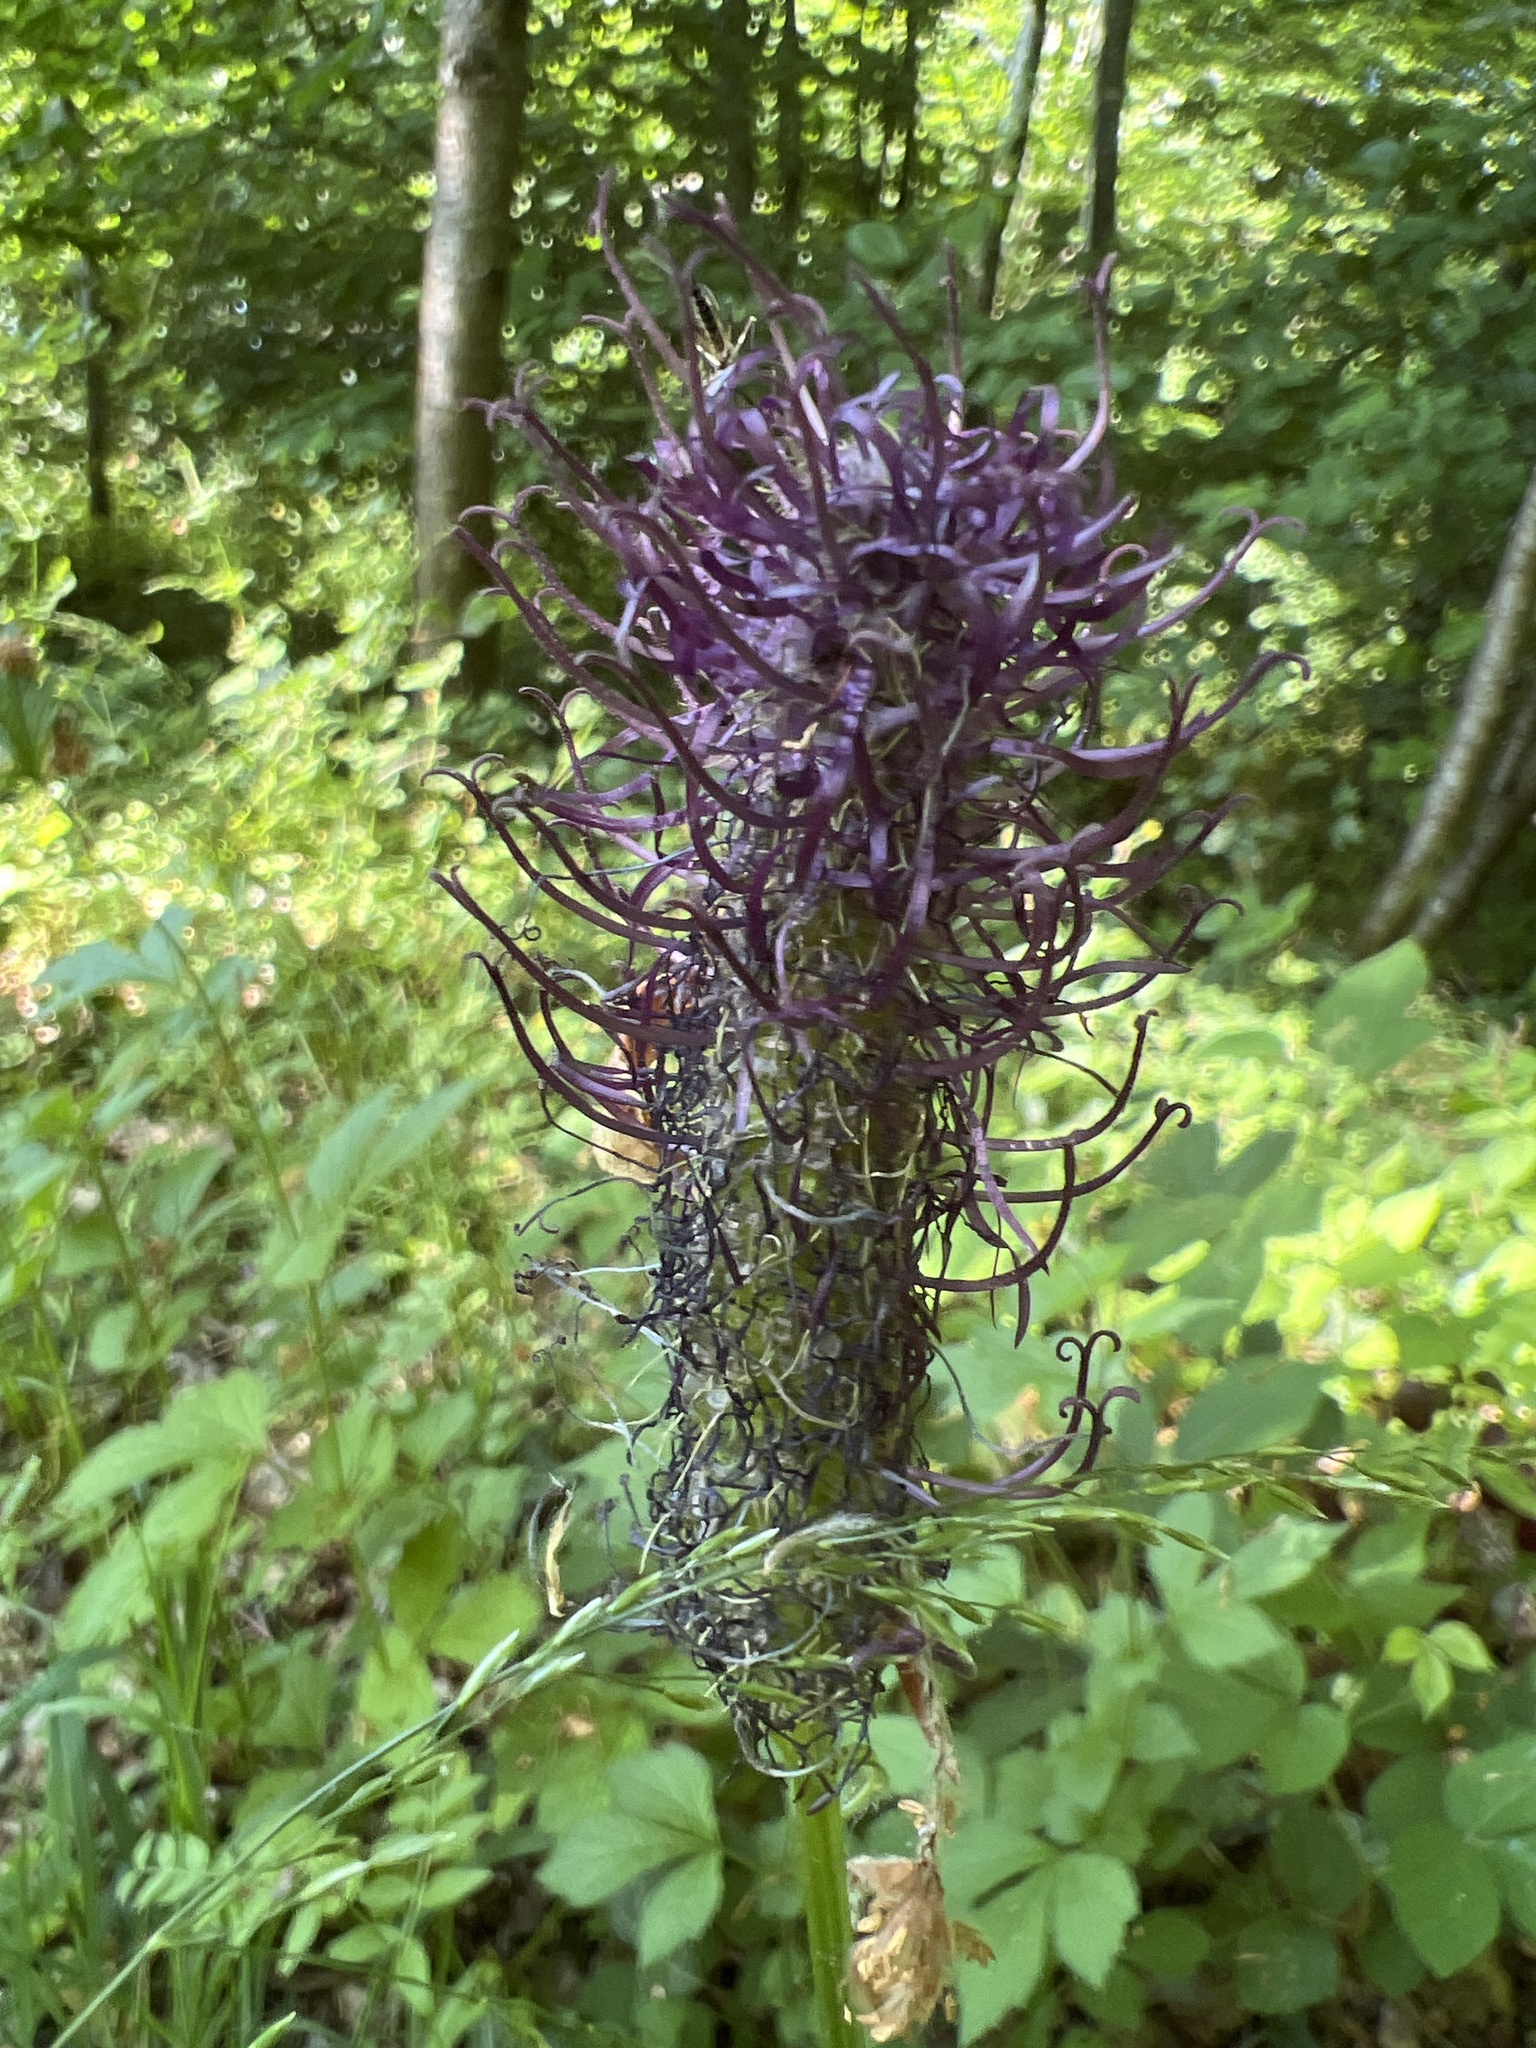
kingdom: Plantae
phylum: Tracheophyta
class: Magnoliopsida
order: Asterales
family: Campanulaceae
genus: Phyteuma
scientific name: Phyteuma nigrum
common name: Black rampion
